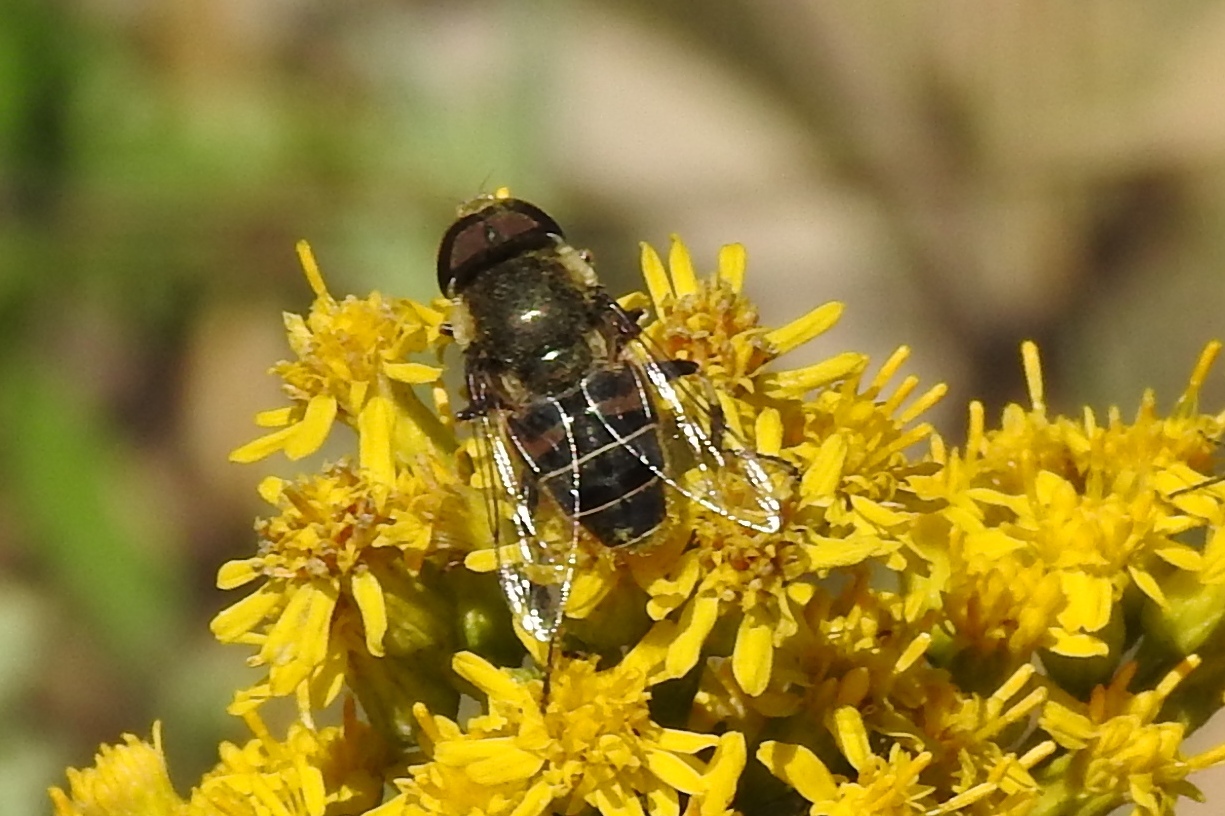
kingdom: Animalia
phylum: Arthropoda
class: Insecta
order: Diptera
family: Syrphidae
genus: Eristalis
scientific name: Eristalis dimidiata
